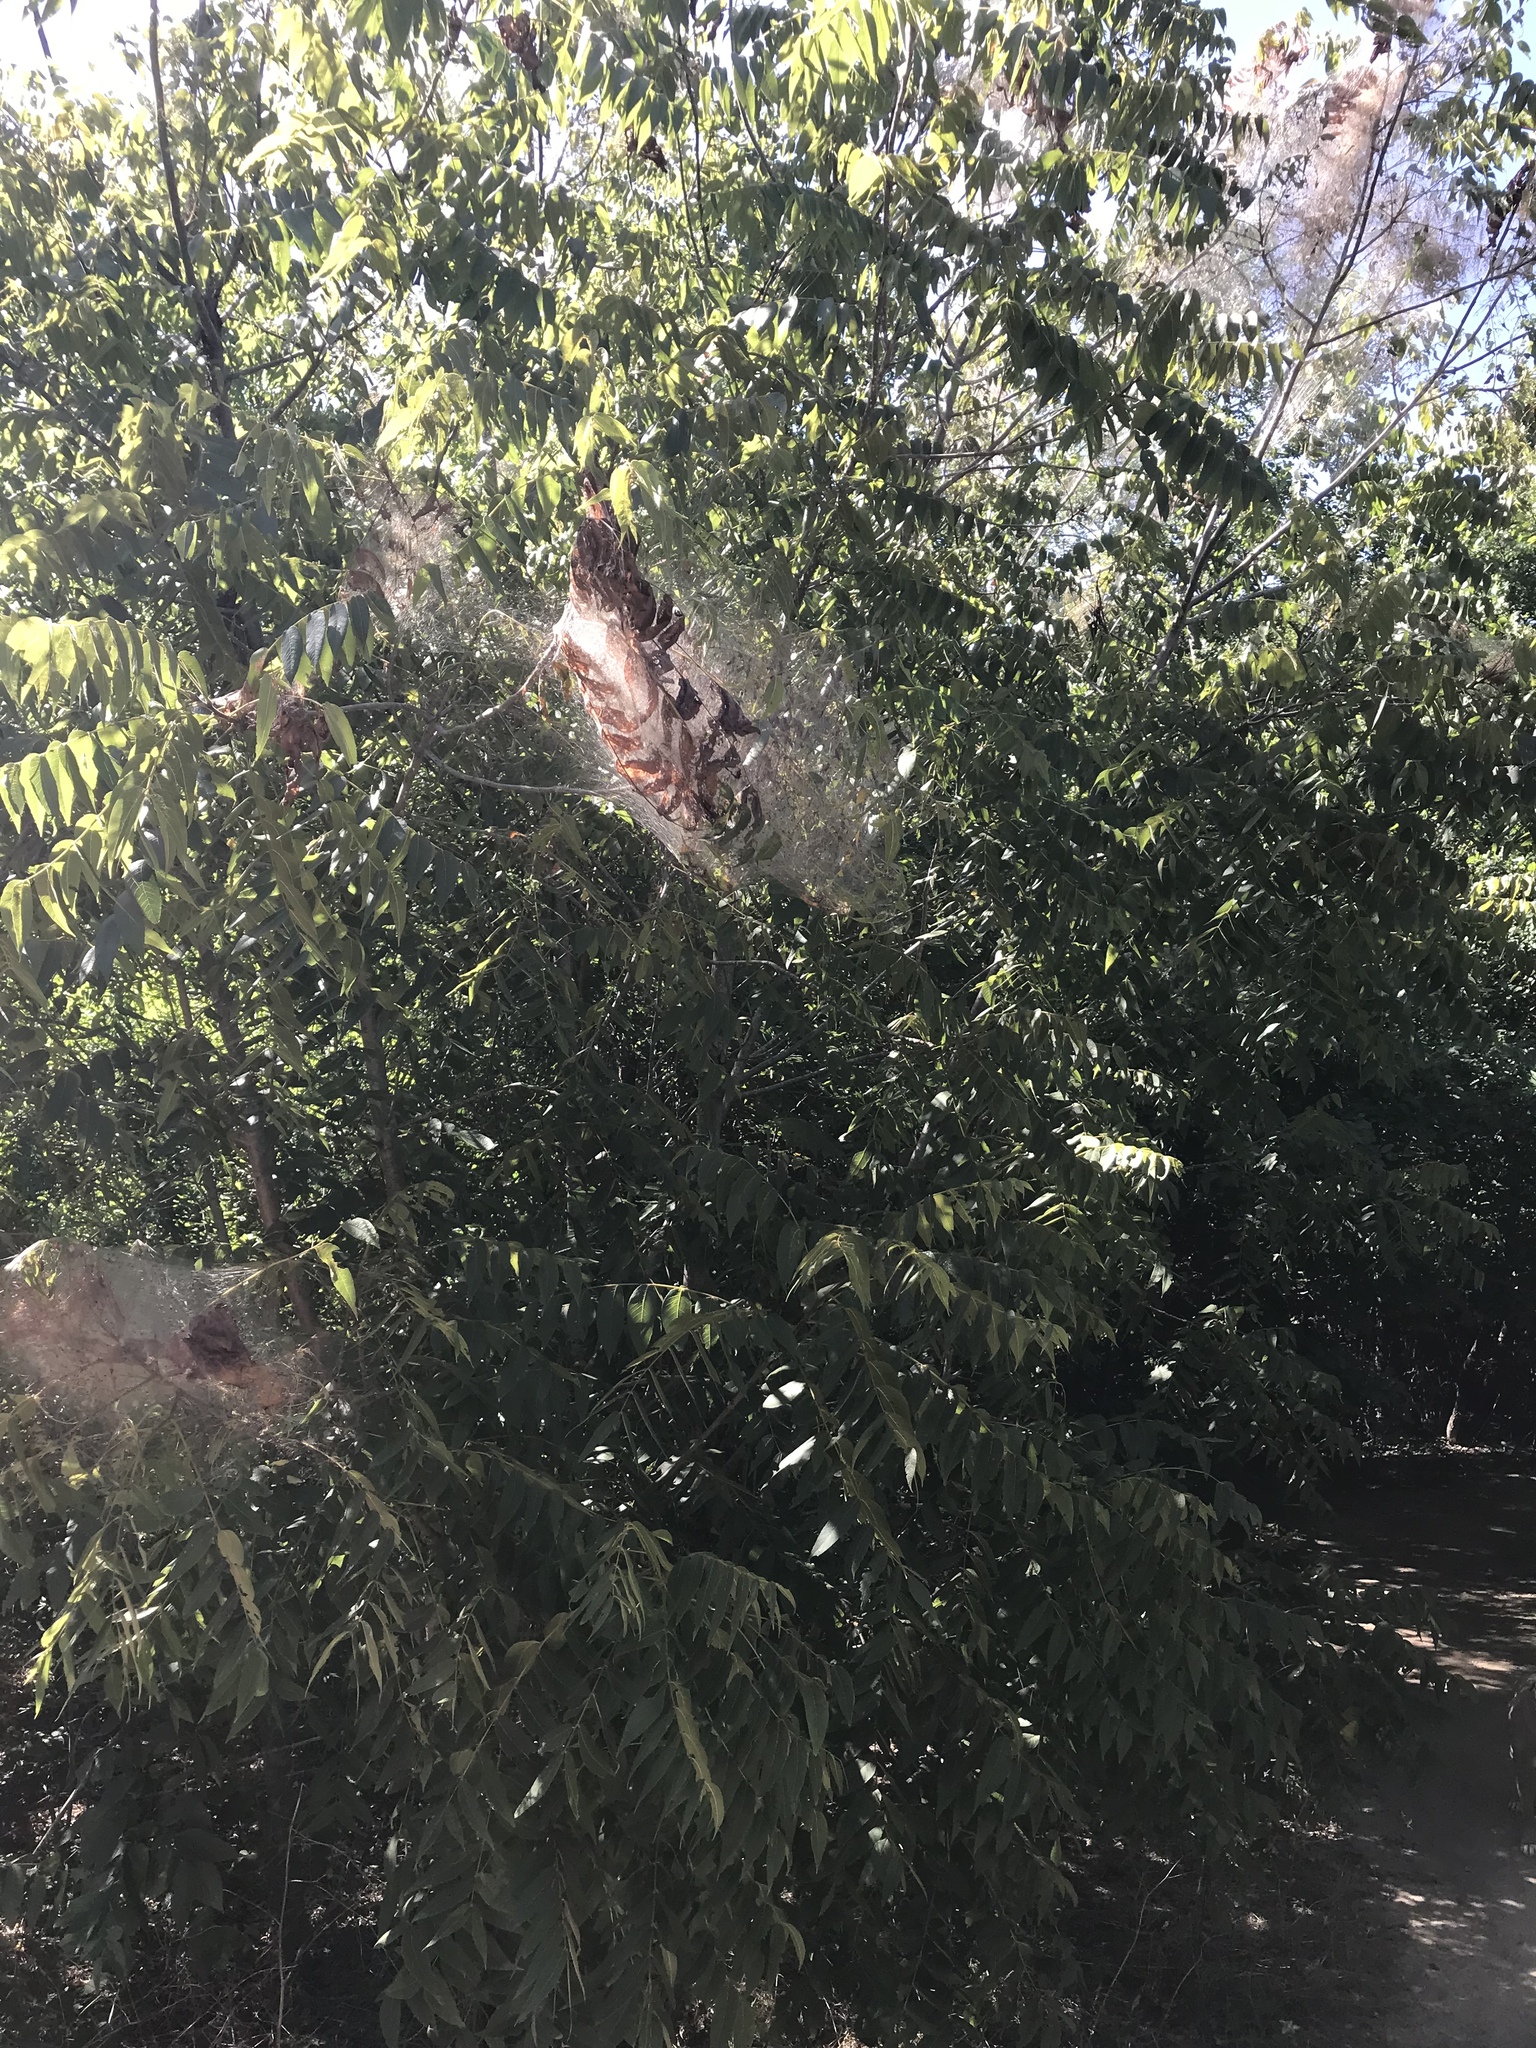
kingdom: Animalia
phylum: Arthropoda
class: Insecta
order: Lepidoptera
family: Erebidae
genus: Hyphantria
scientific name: Hyphantria cunea
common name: American white moth
